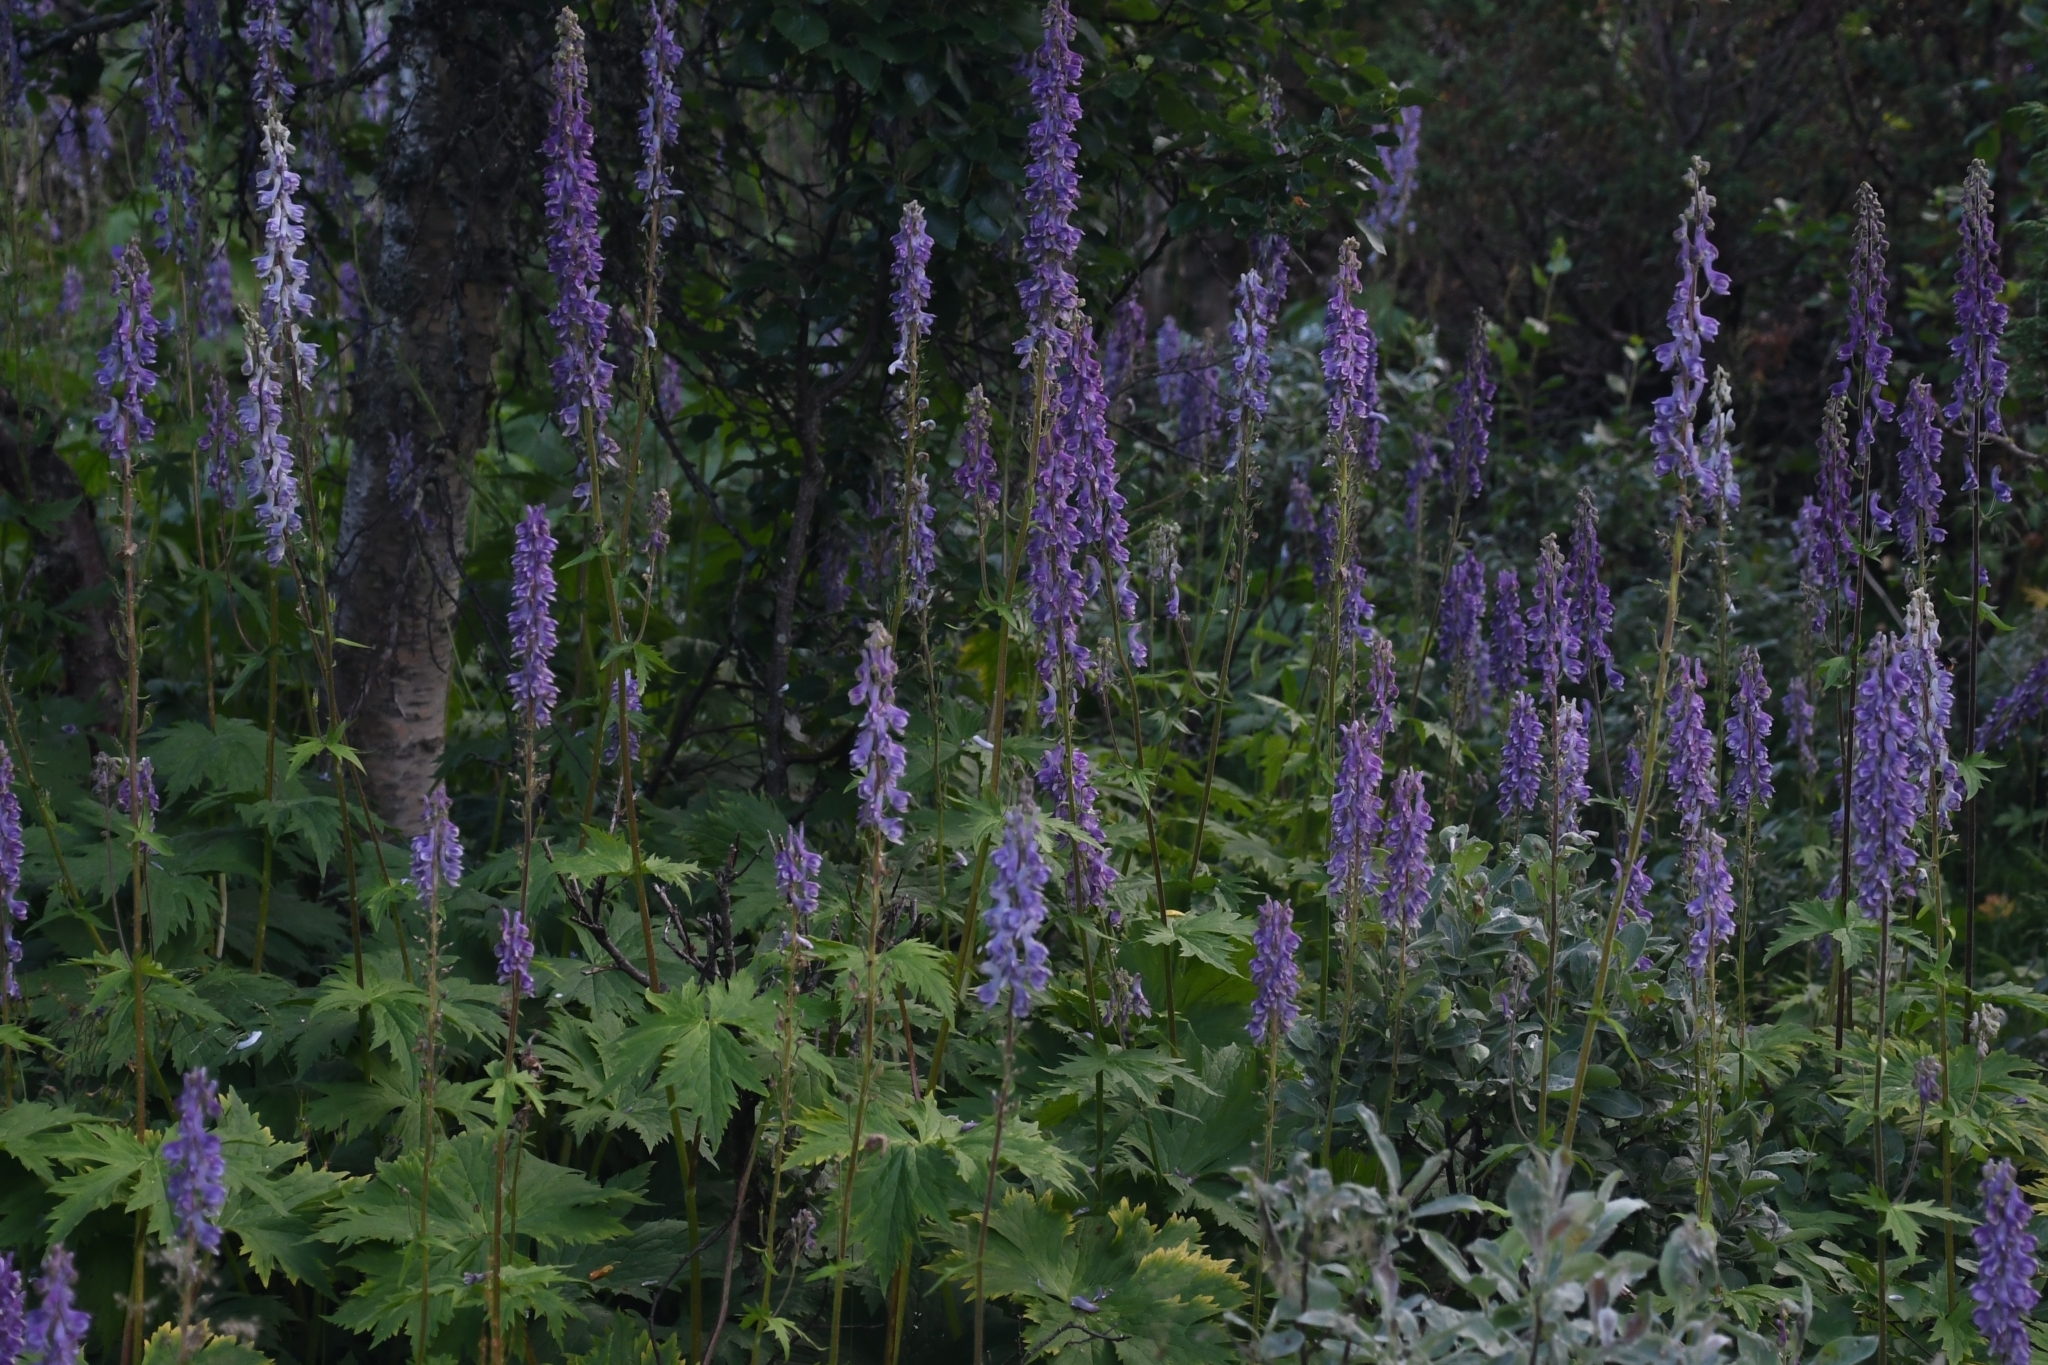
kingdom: Plantae
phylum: Tracheophyta
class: Magnoliopsida
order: Ranunculales
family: Ranunculaceae
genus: Aconitum
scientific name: Aconitum septentrionale
